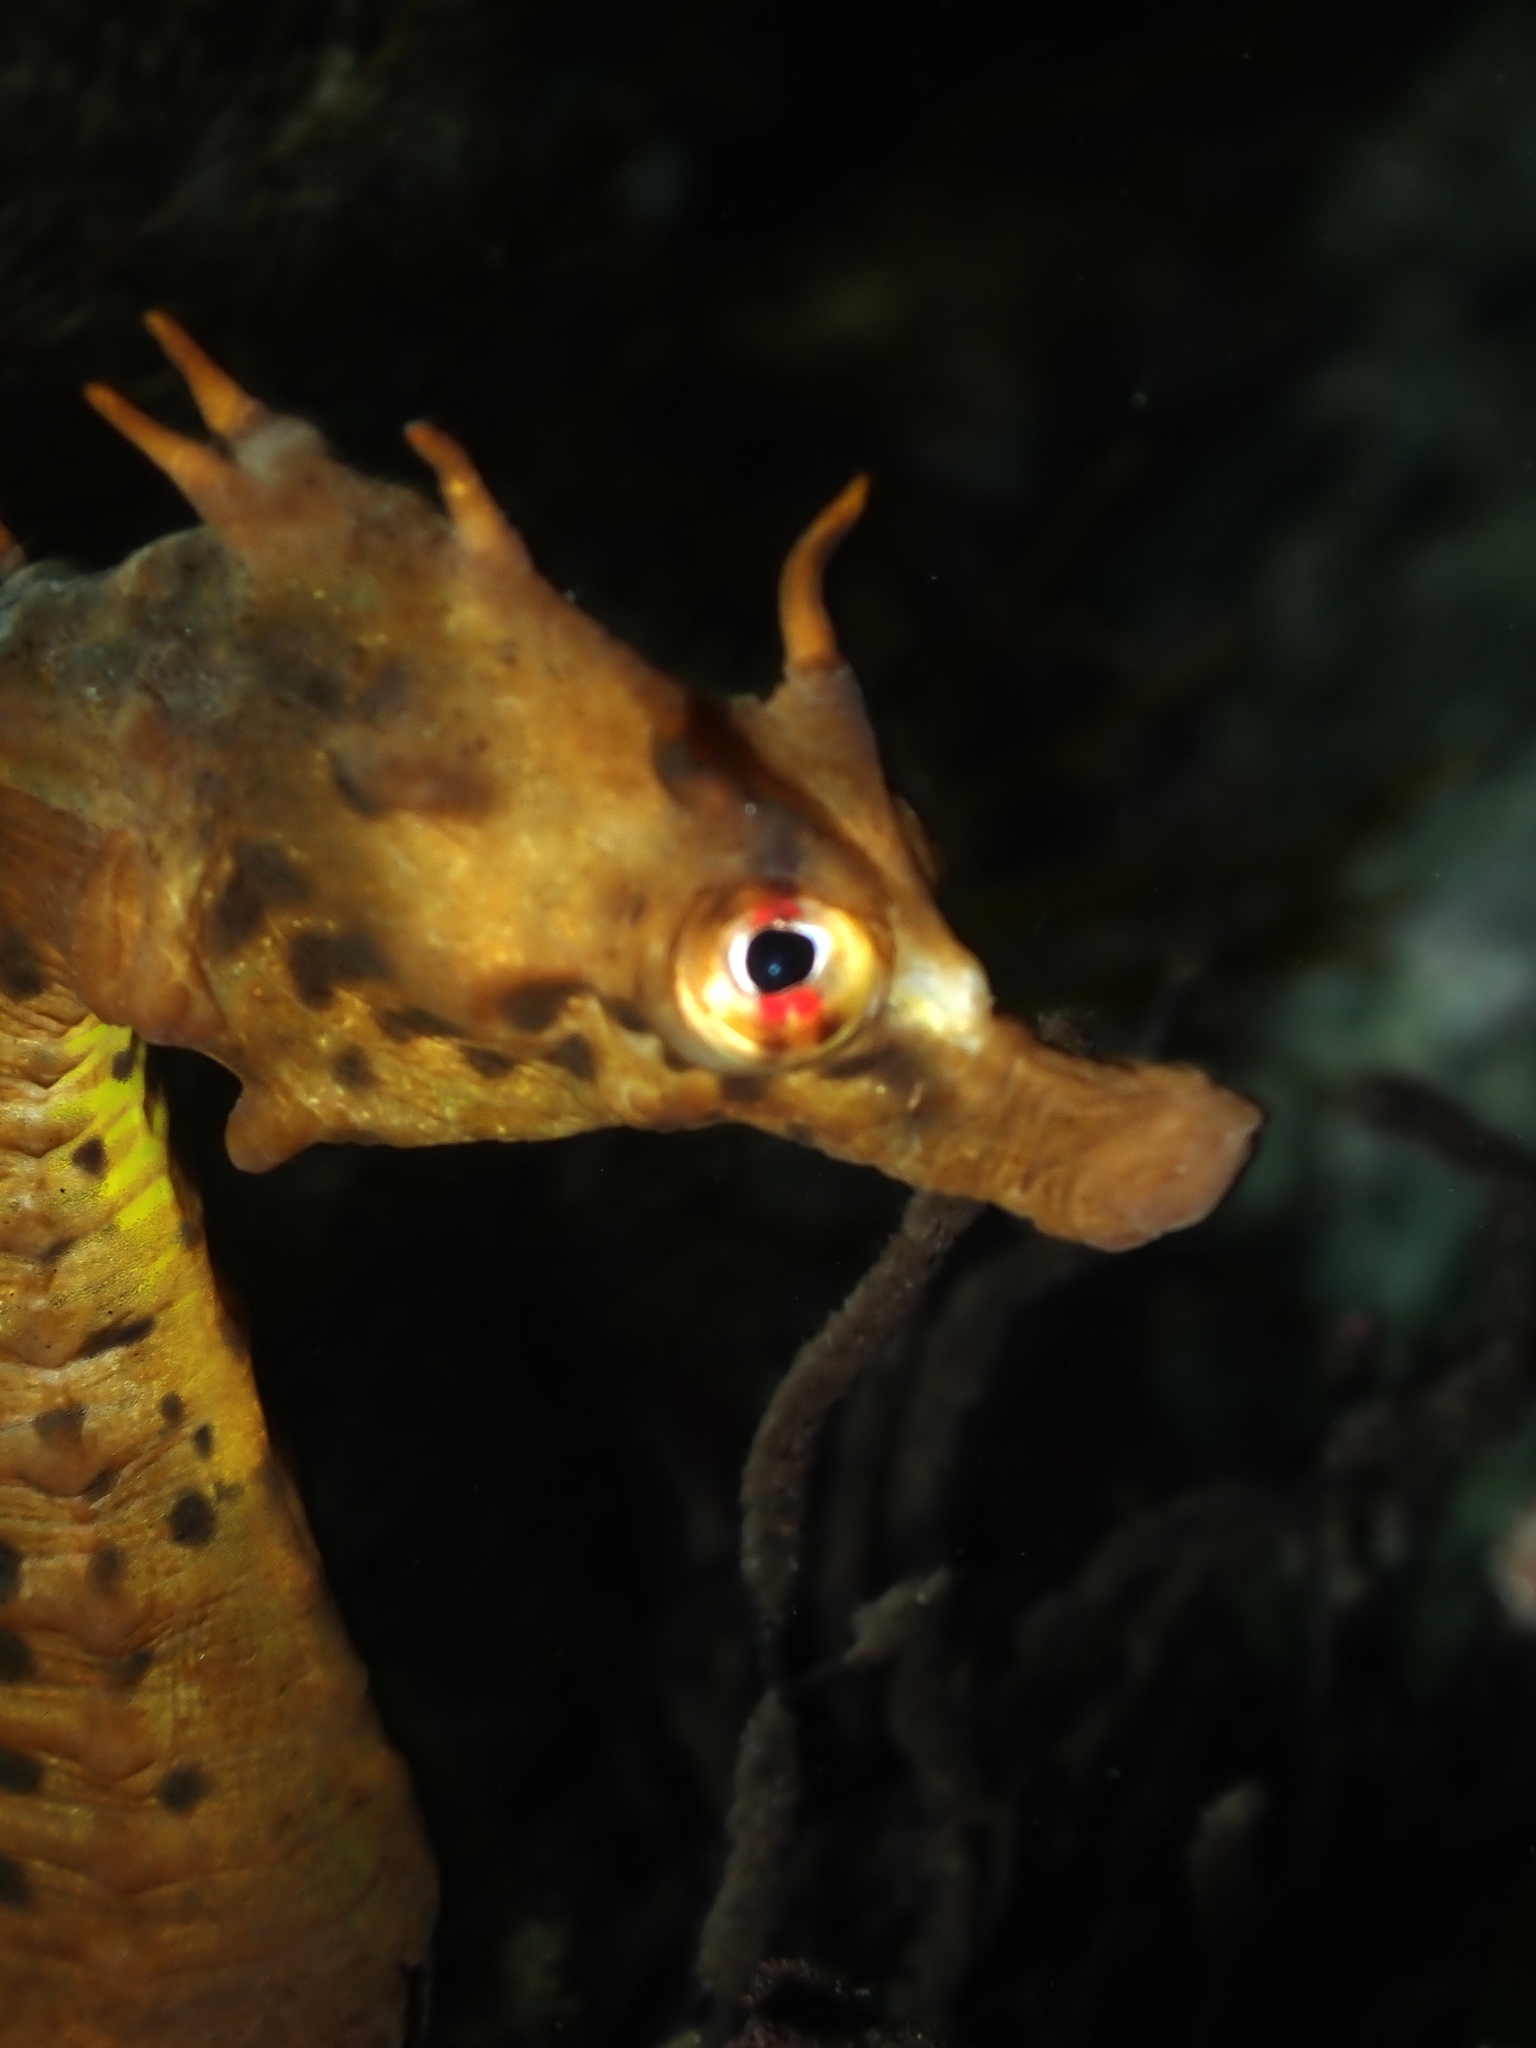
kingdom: Animalia
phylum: Chordata
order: Syngnathiformes
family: Syngnathidae
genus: Hippocampus
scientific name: Hippocampus abdominalis
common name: Big-belly seahorse
